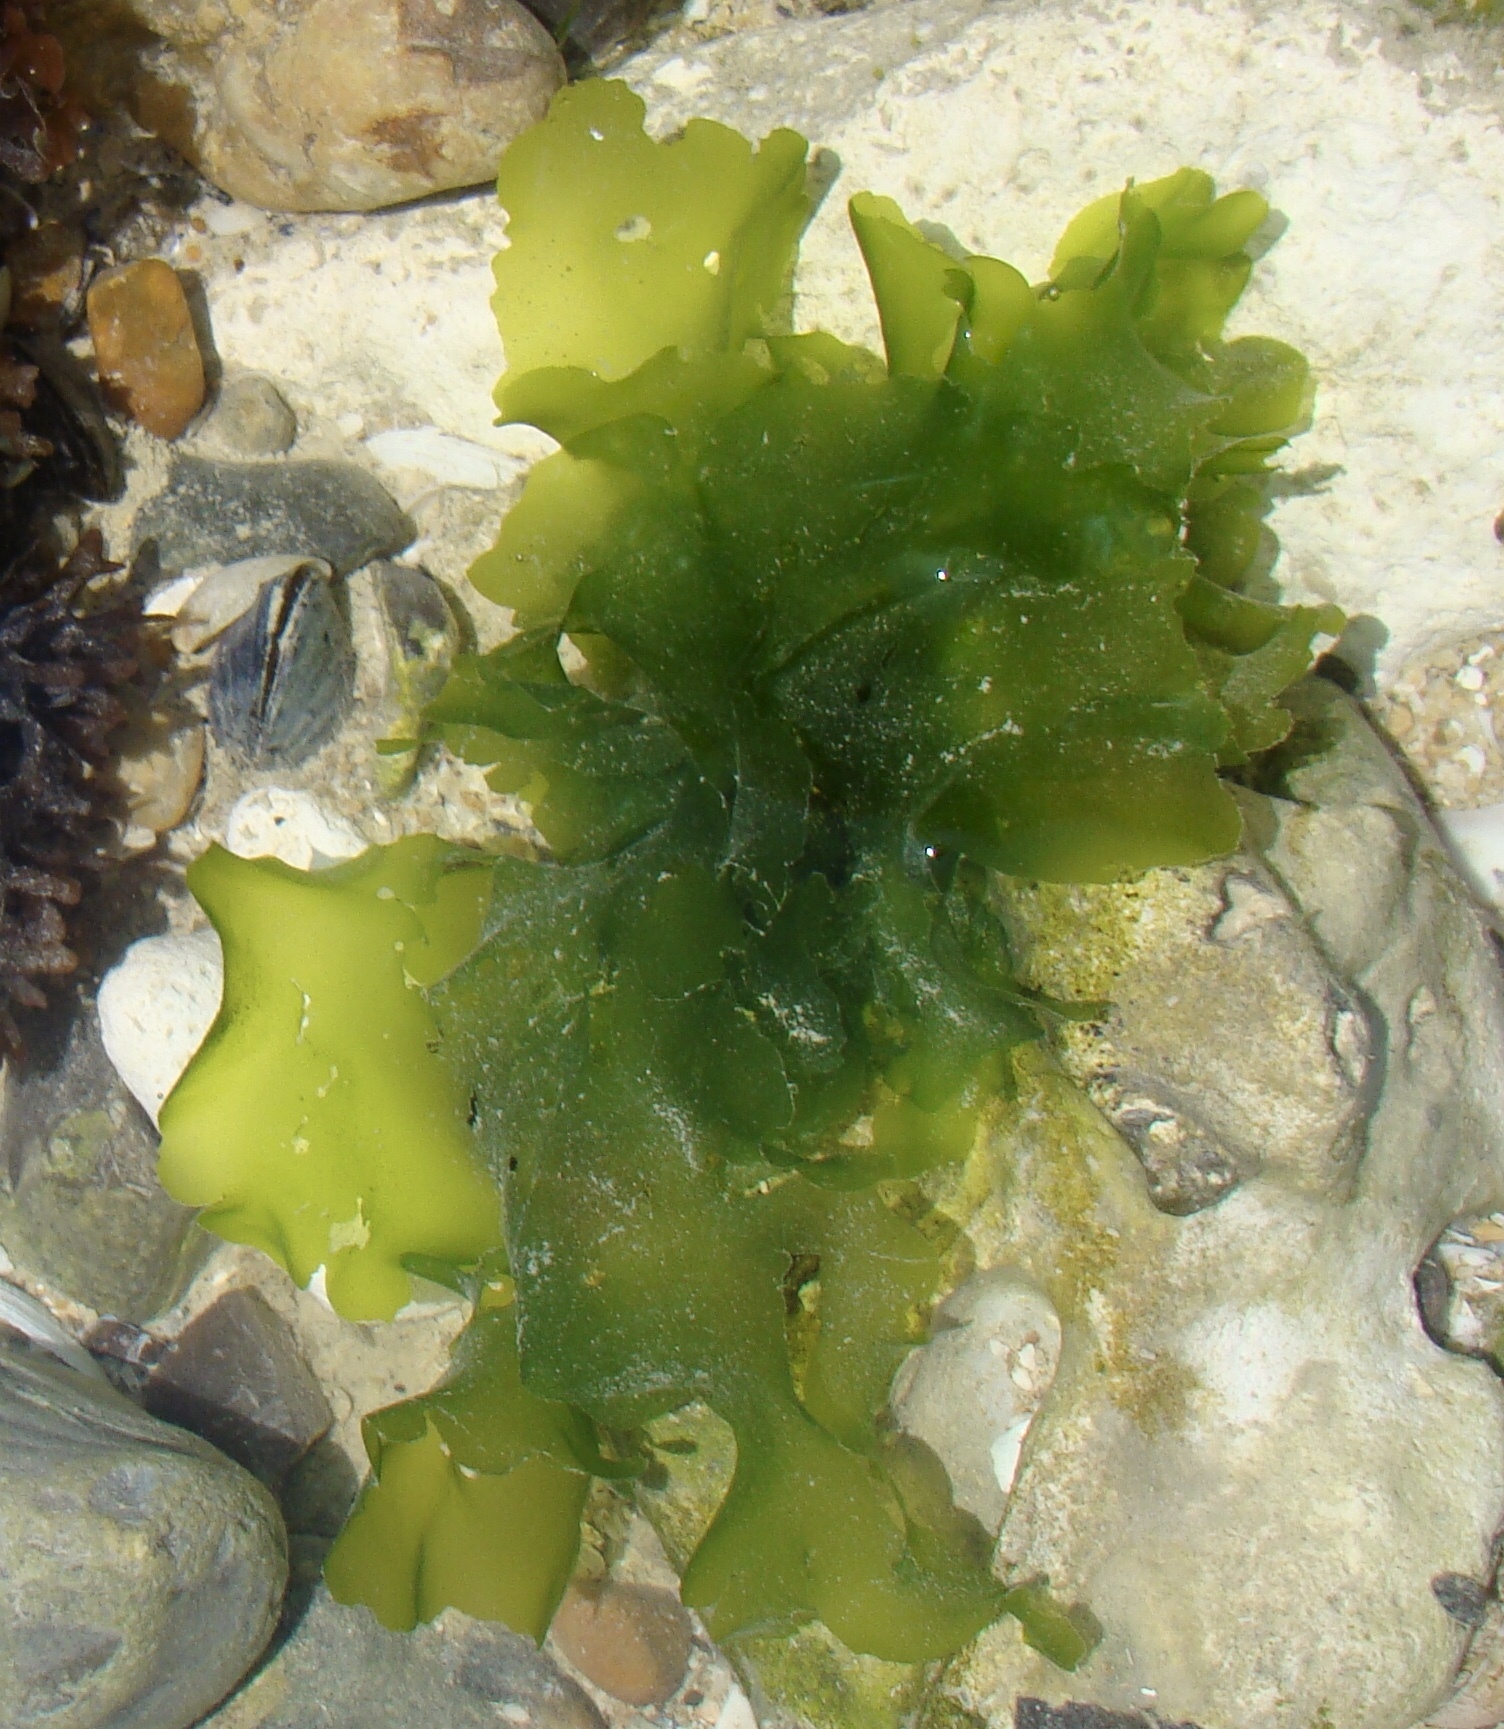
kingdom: Plantae
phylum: Chlorophyta
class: Ulvophyceae
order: Ulvales
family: Ulvaceae
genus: Ulva
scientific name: Ulva lactuca
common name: Sea lettuce
